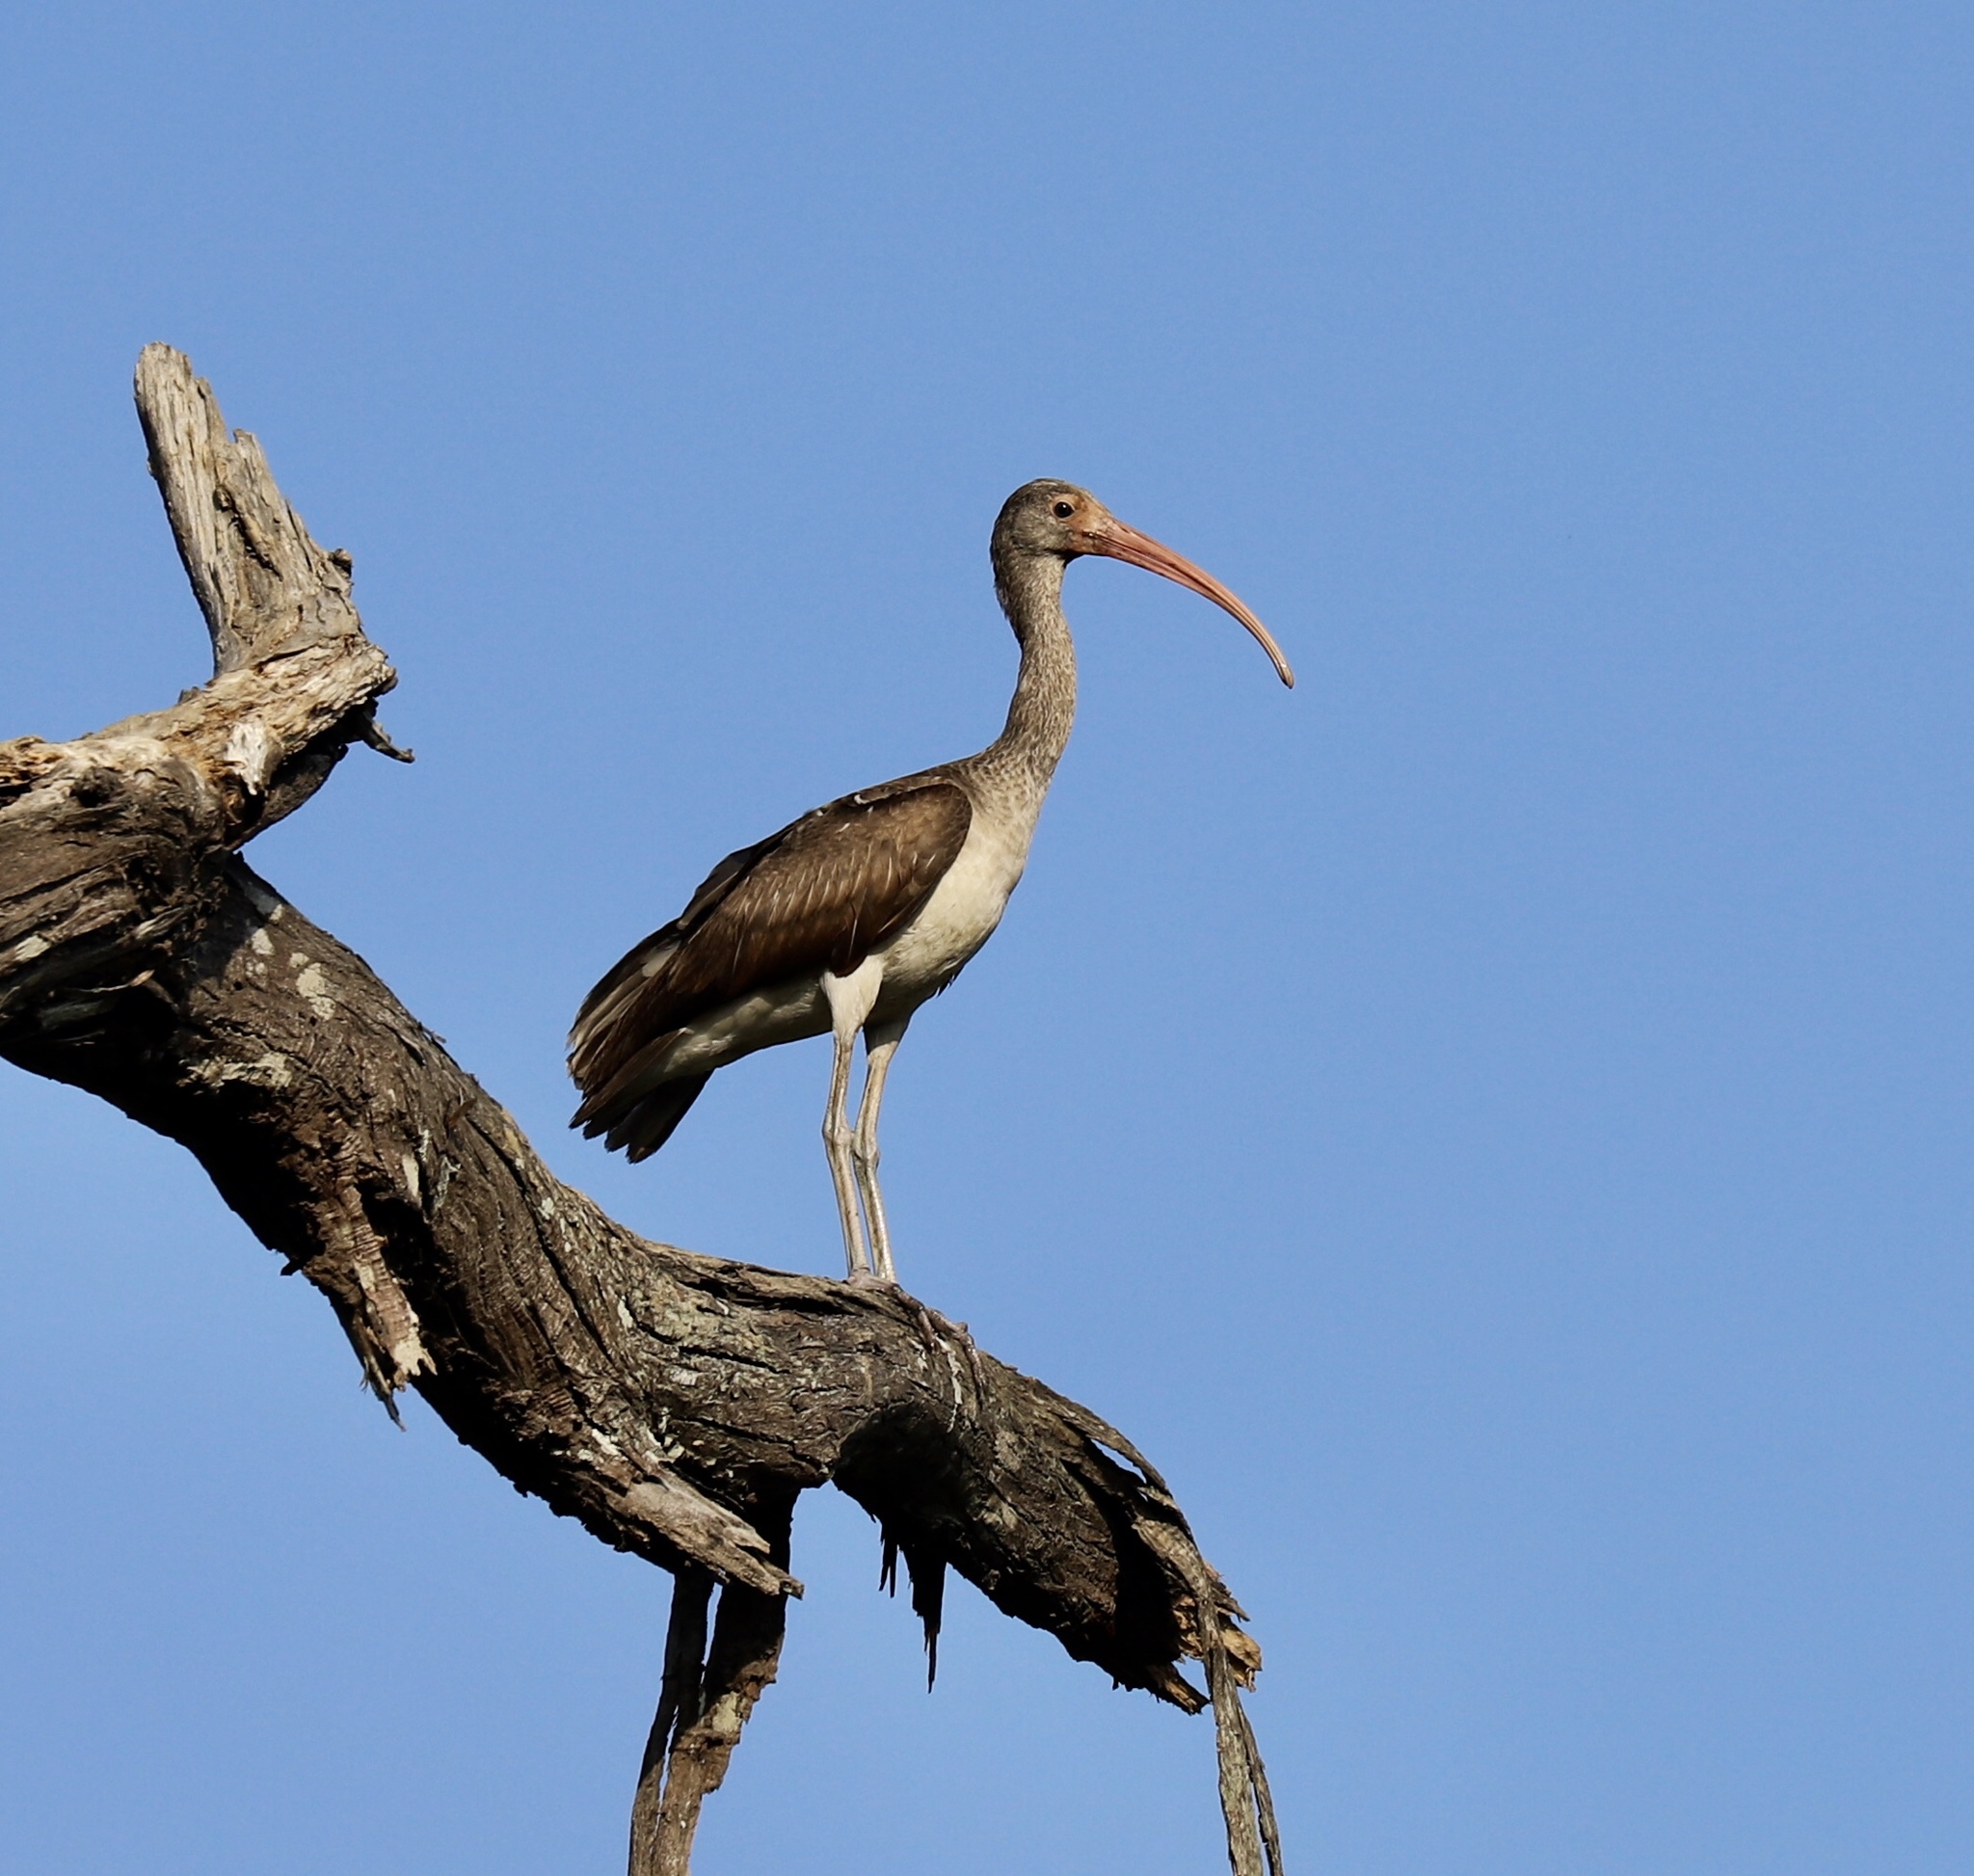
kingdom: Animalia
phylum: Chordata
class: Aves
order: Pelecaniformes
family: Threskiornithidae
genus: Eudocimus
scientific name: Eudocimus albus
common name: White ibis
